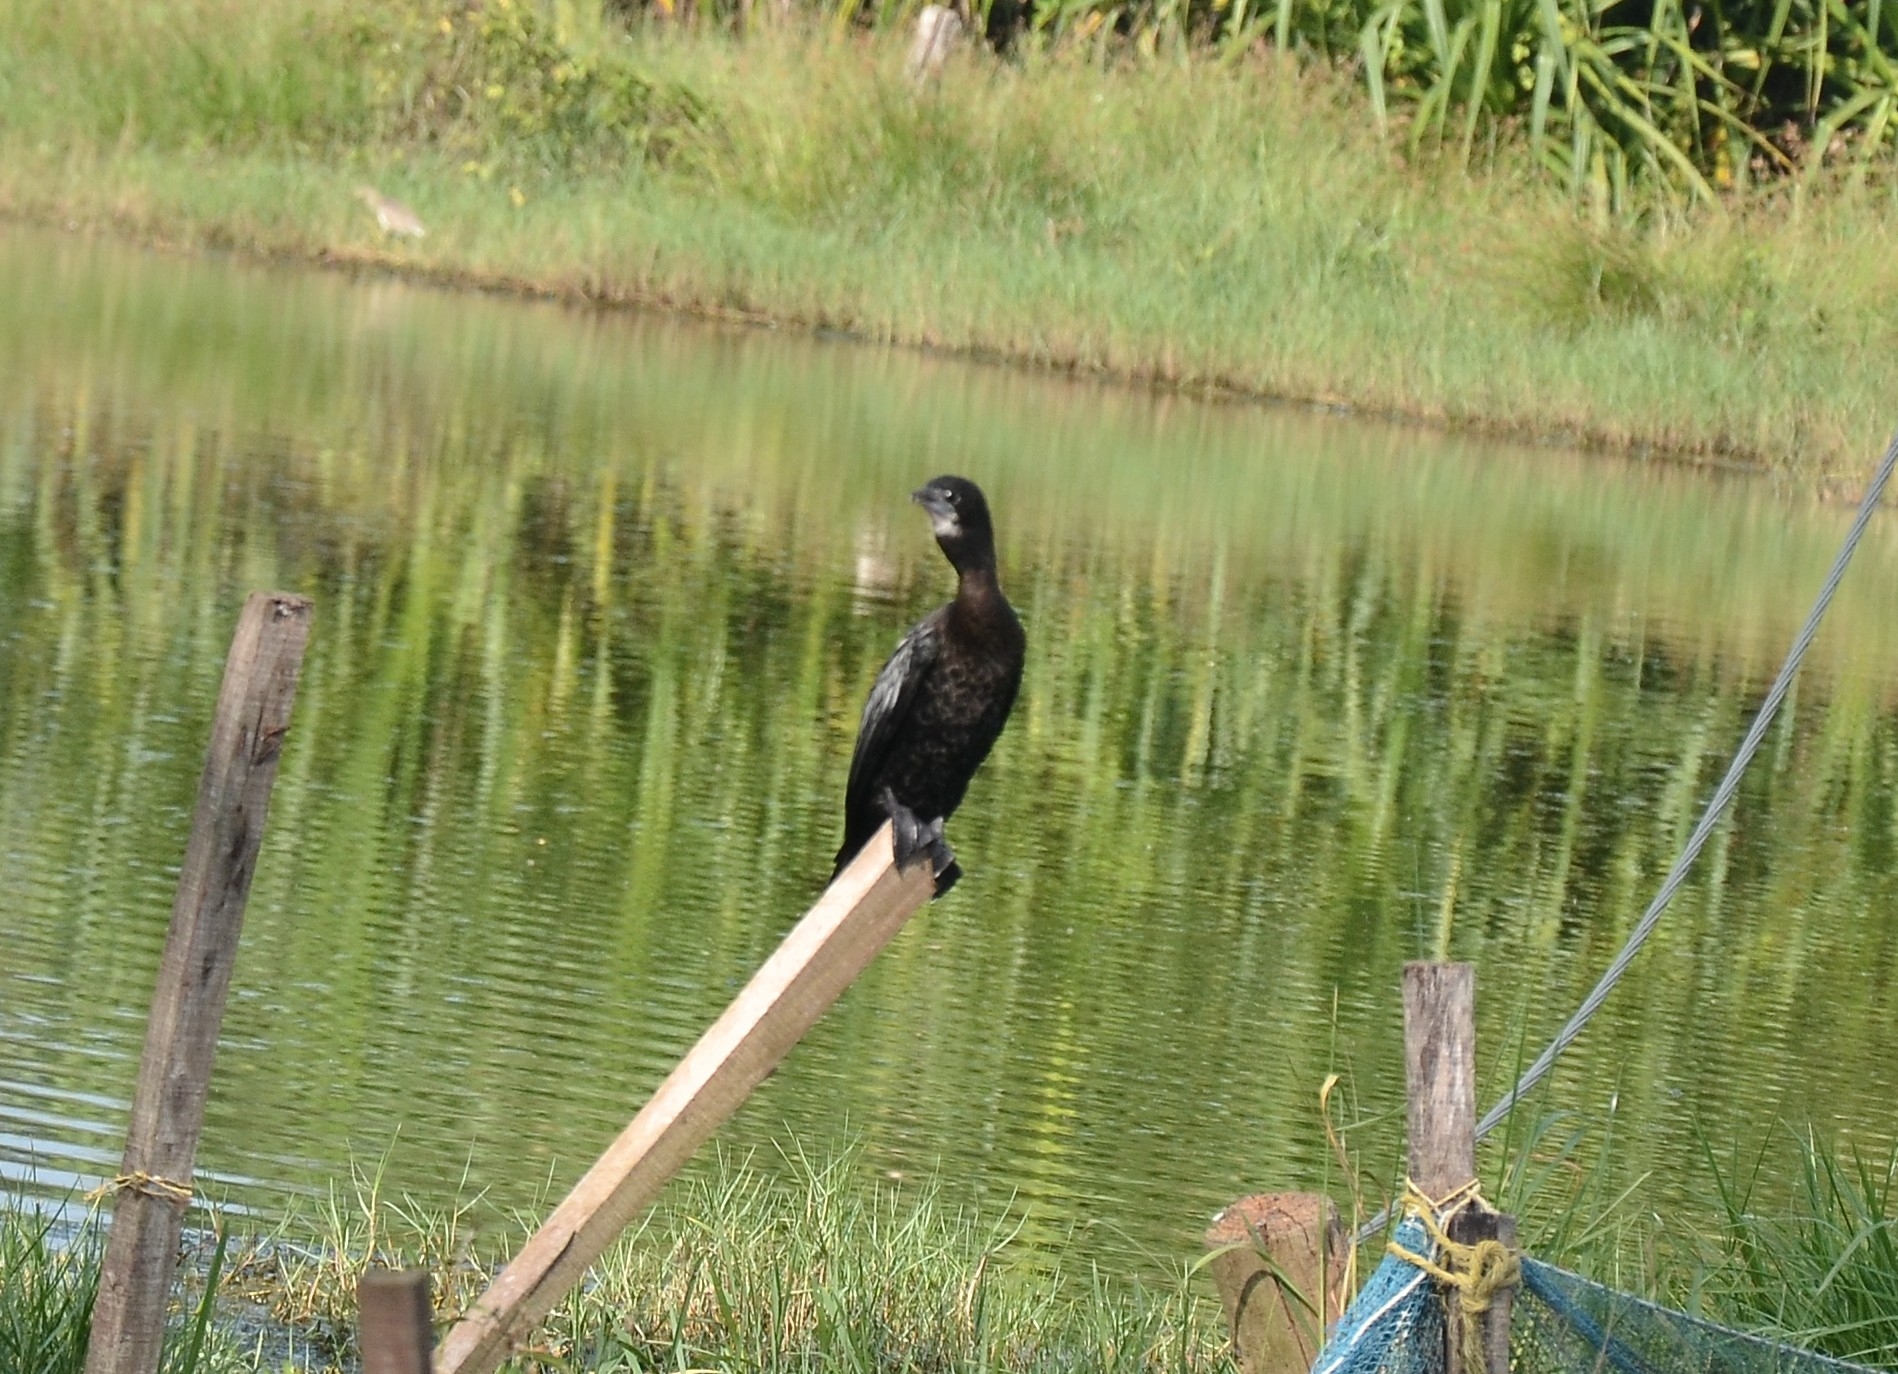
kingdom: Animalia
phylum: Chordata
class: Aves
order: Suliformes
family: Phalacrocoracidae
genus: Microcarbo
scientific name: Microcarbo niger
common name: Little cormorant
